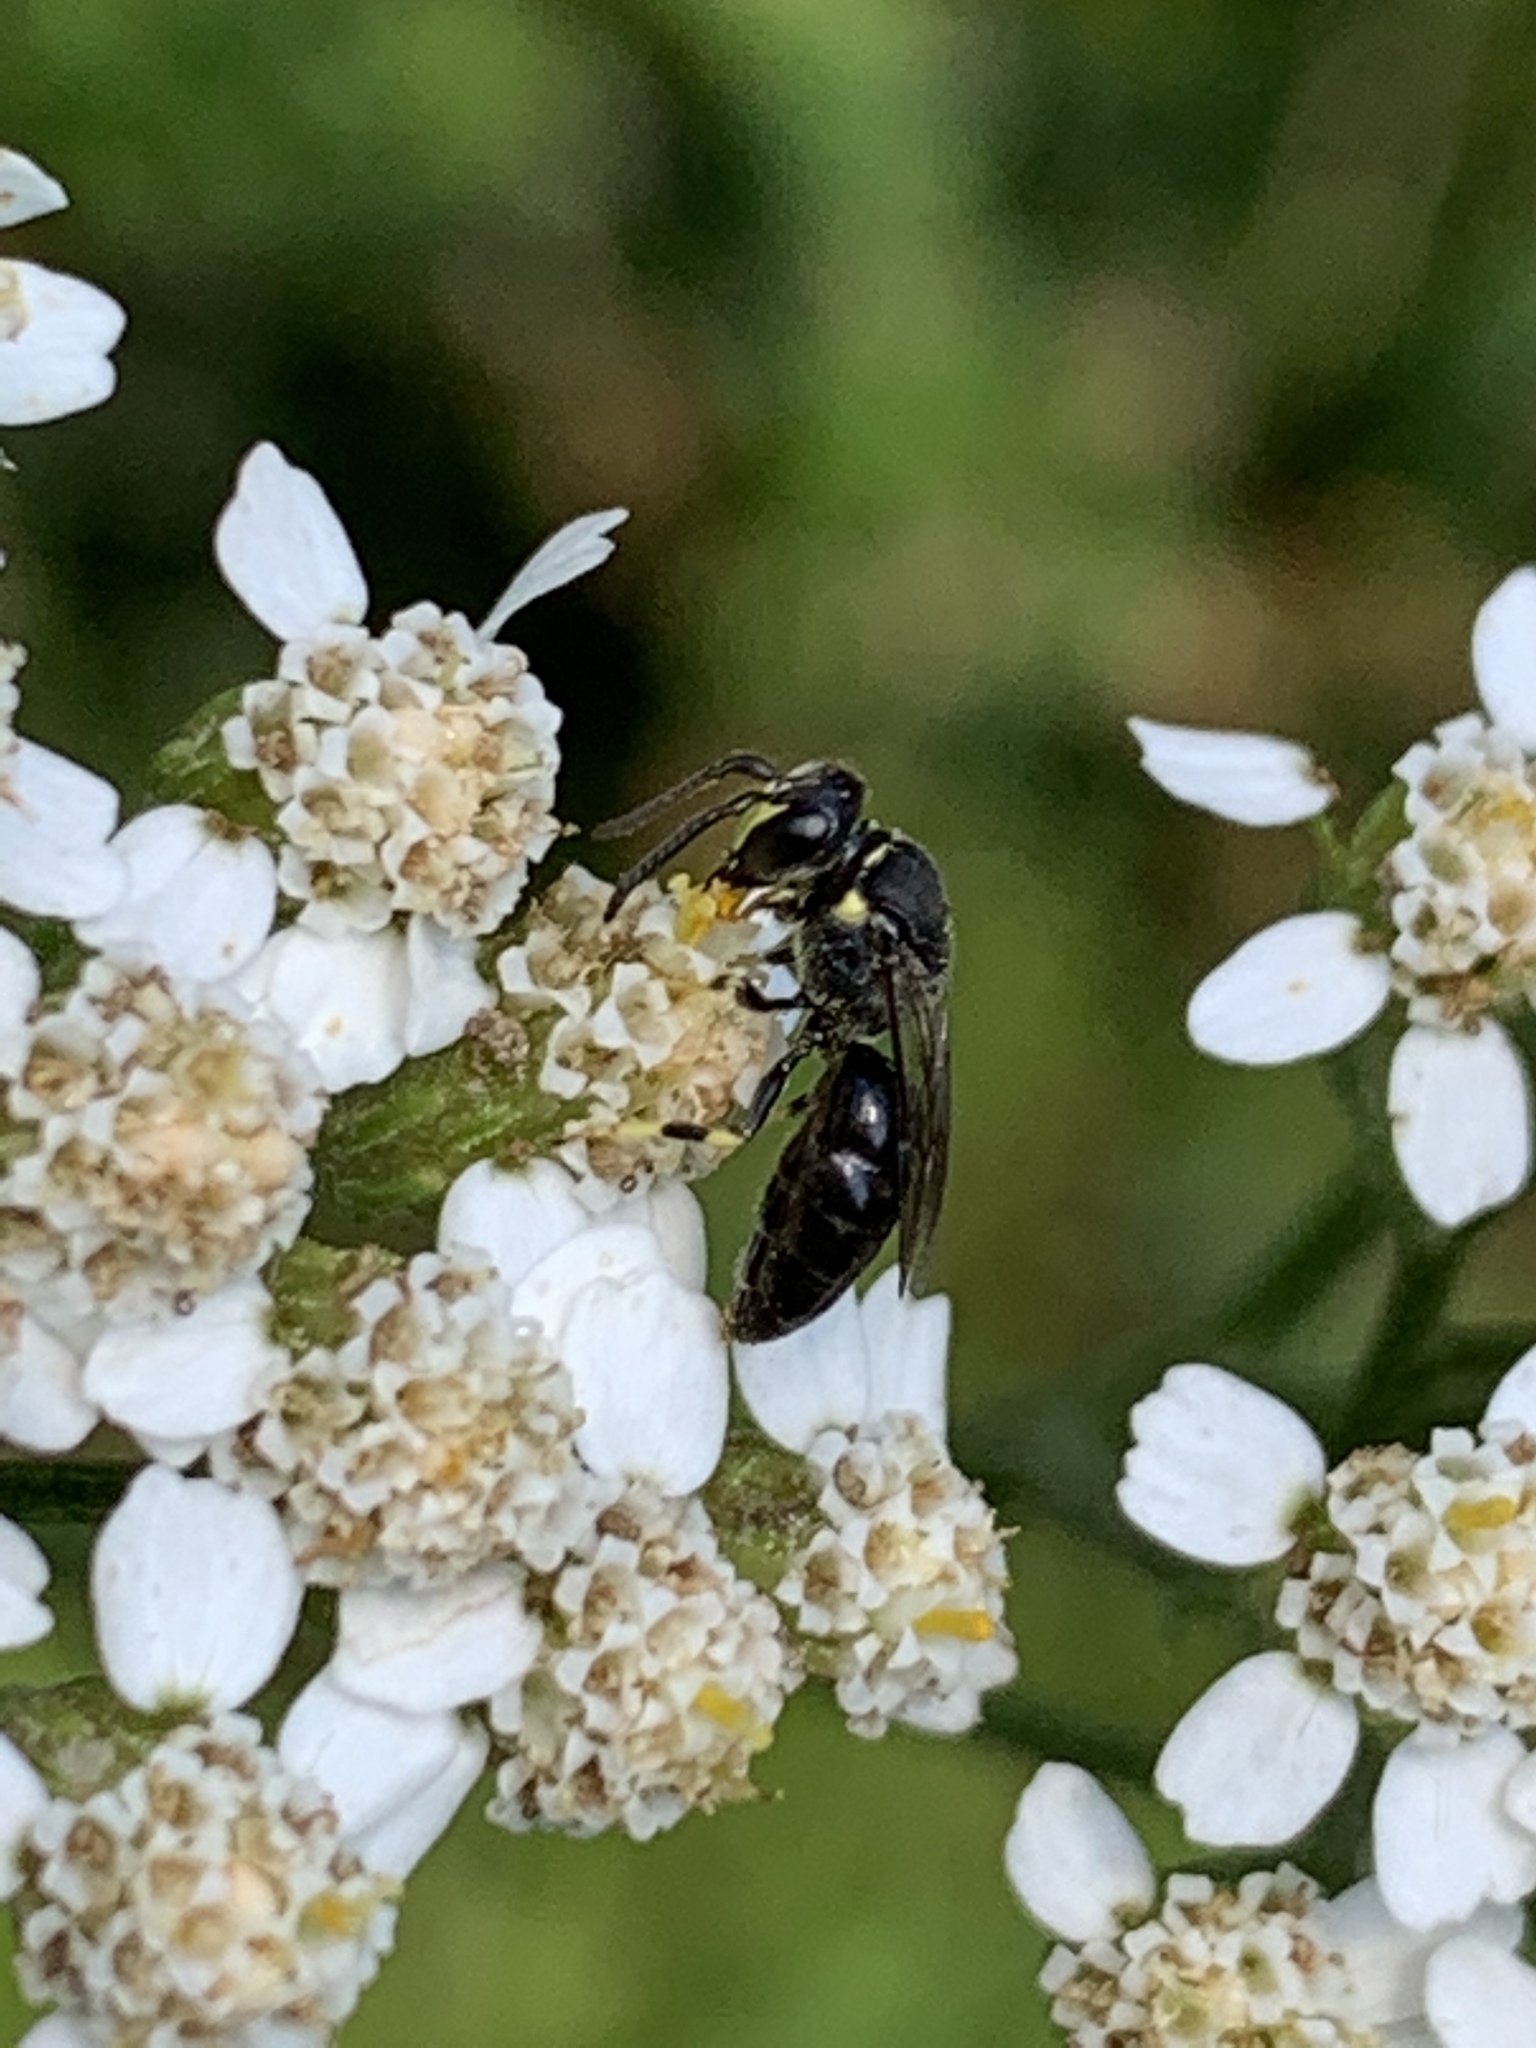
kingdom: Animalia
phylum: Arthropoda
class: Insecta
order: Hymenoptera
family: Colletidae
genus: Hylaeus
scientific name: Hylaeus modestus
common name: Yellow-faced bee
